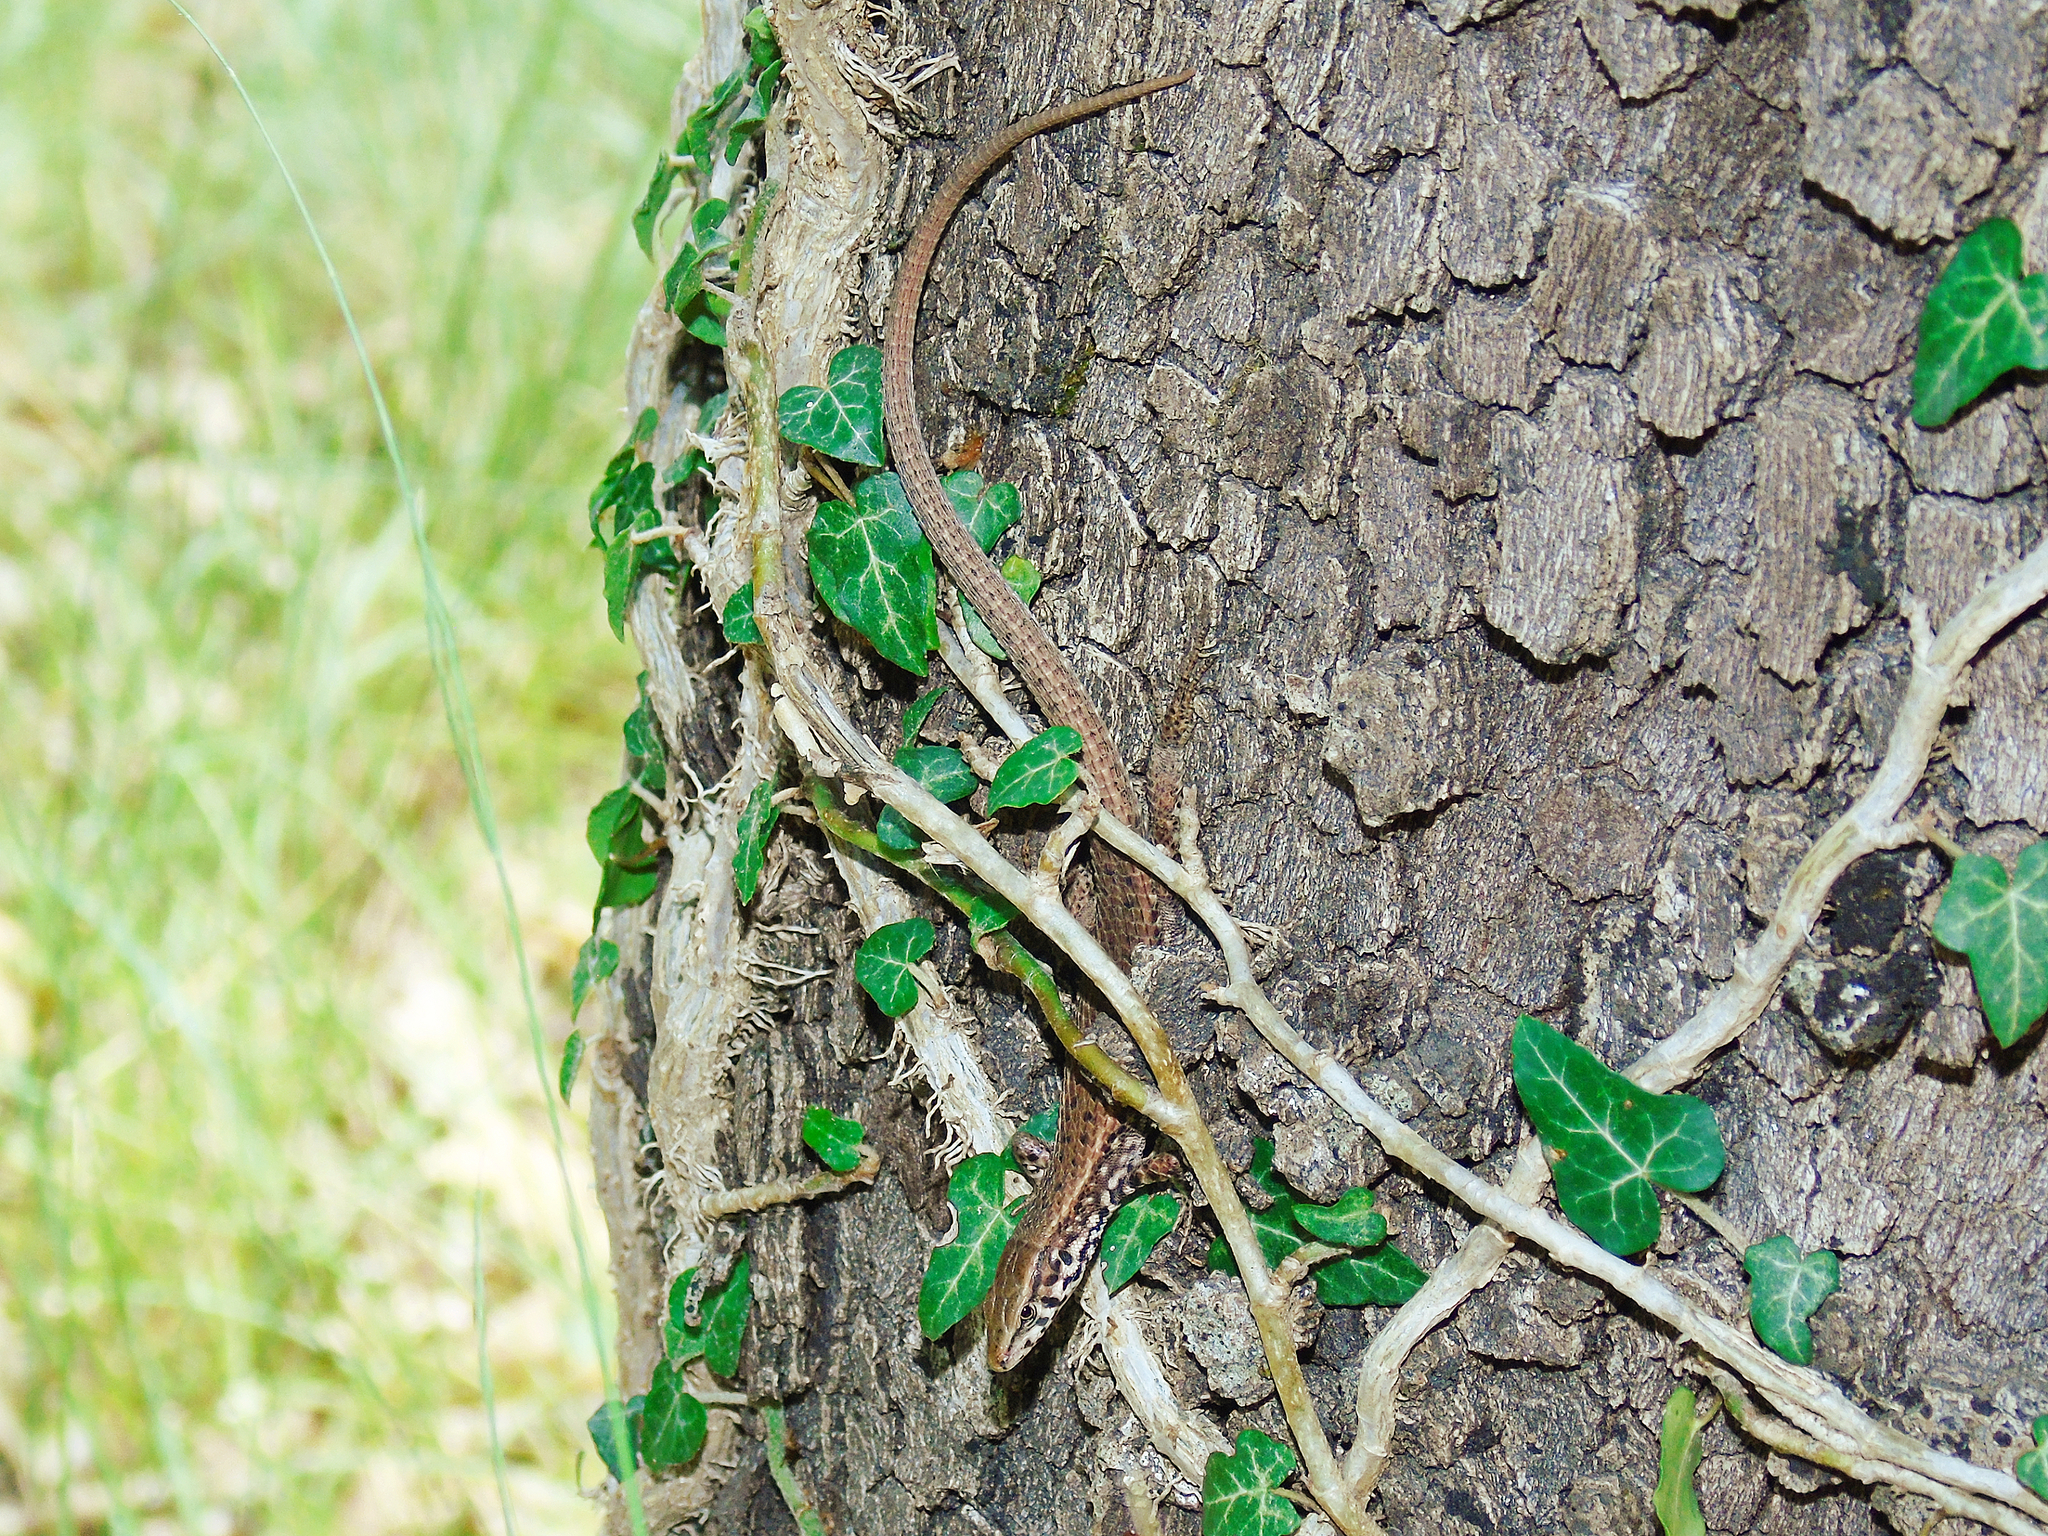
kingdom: Animalia
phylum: Chordata
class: Squamata
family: Lacertidae
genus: Algyroides
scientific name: Algyroides moreoticus
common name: Greek algyroides
